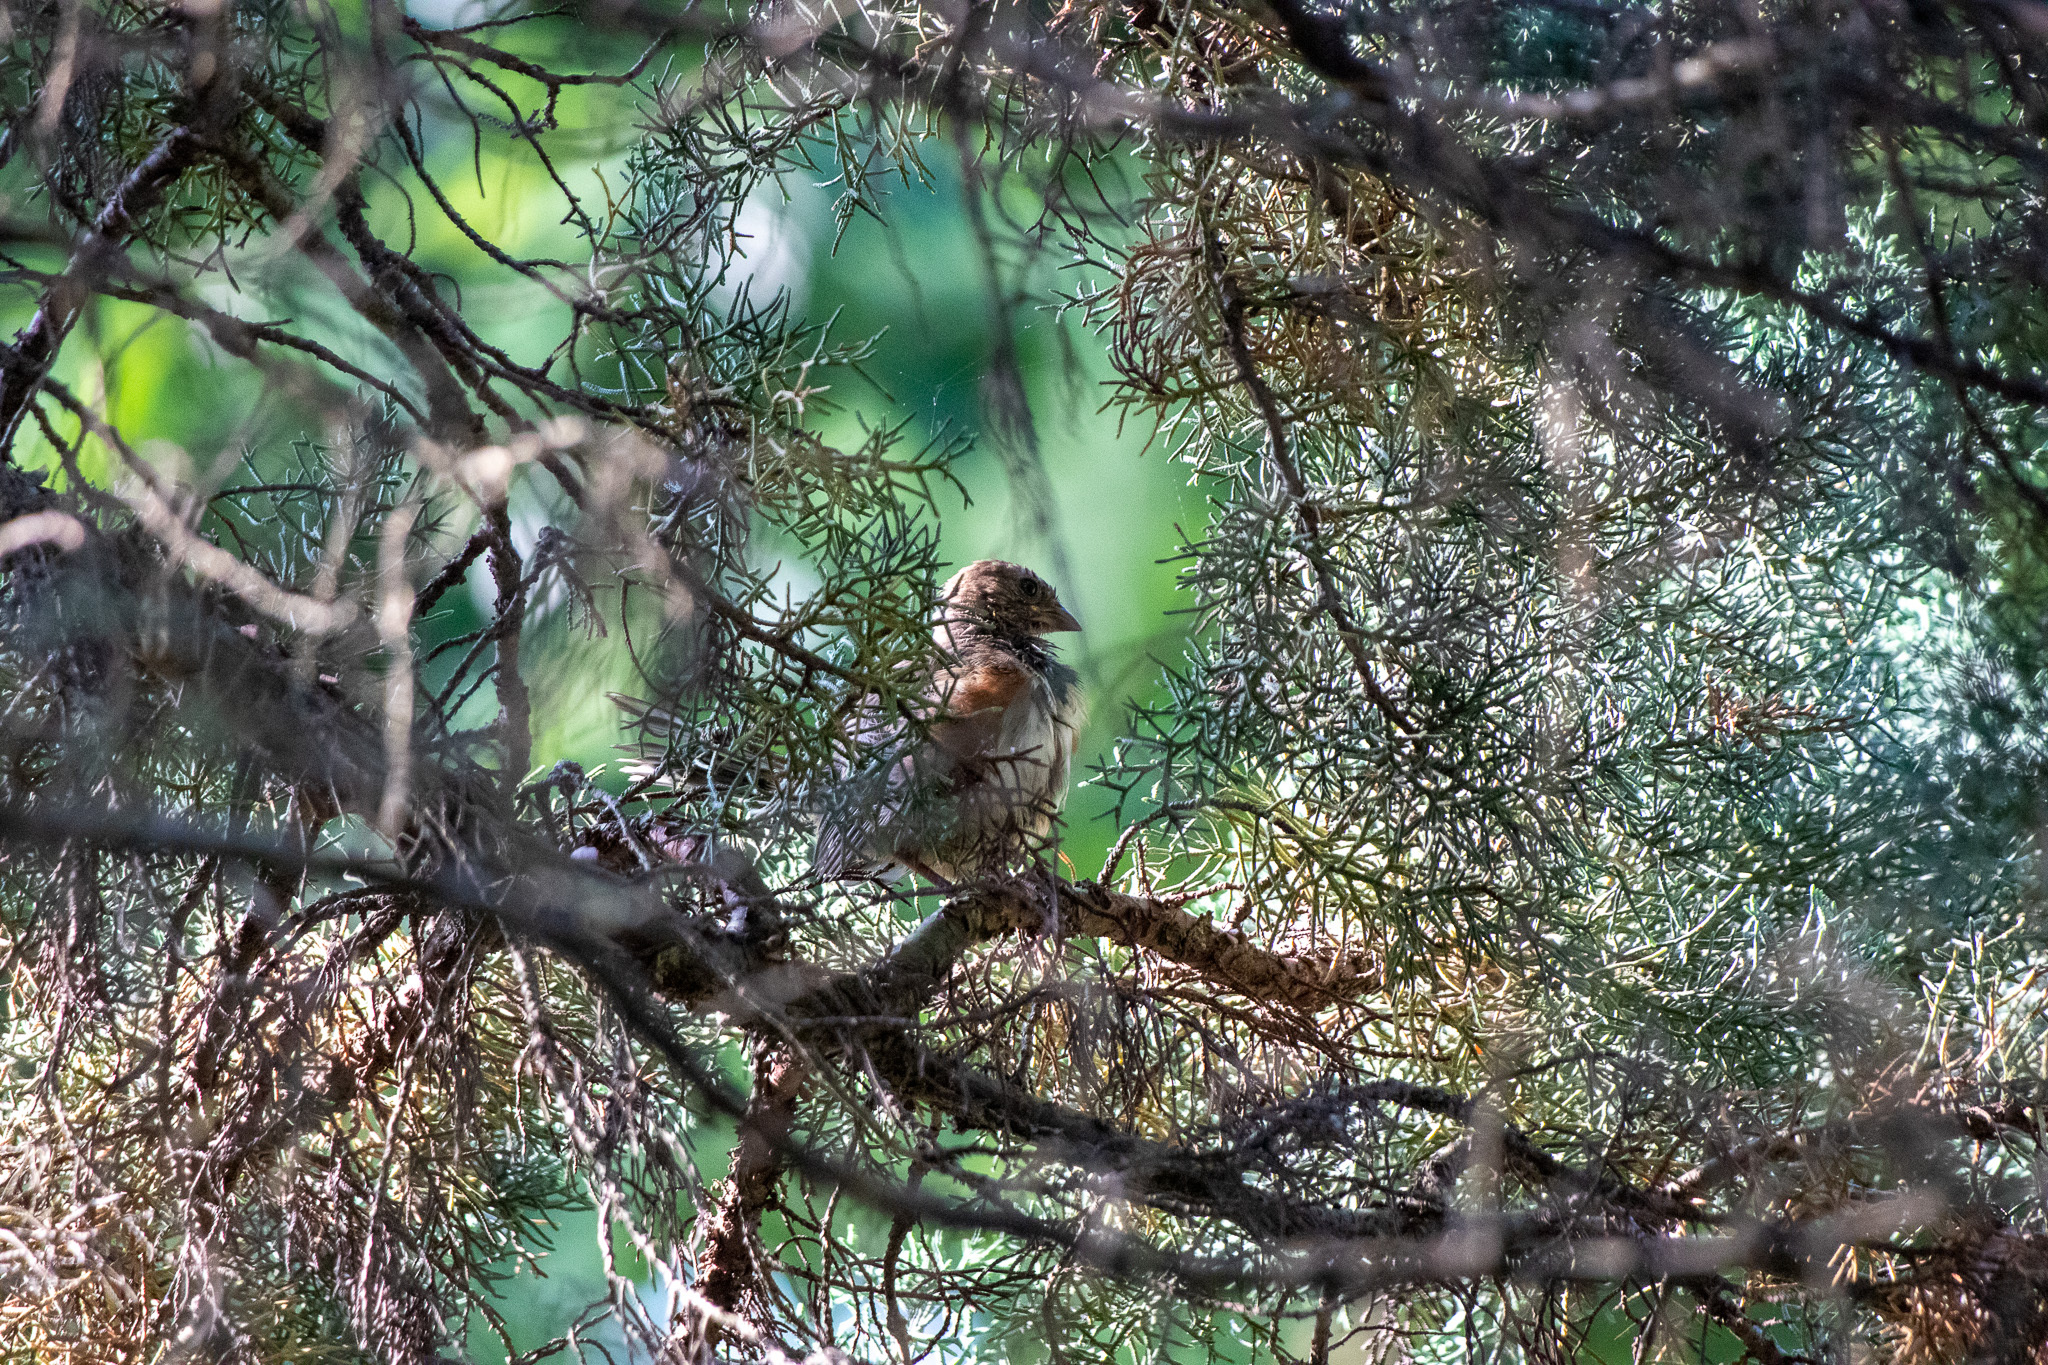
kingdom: Animalia
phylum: Chordata
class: Aves
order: Passeriformes
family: Passerellidae
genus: Pipilo
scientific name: Pipilo erythrophthalmus
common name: Eastern towhee
